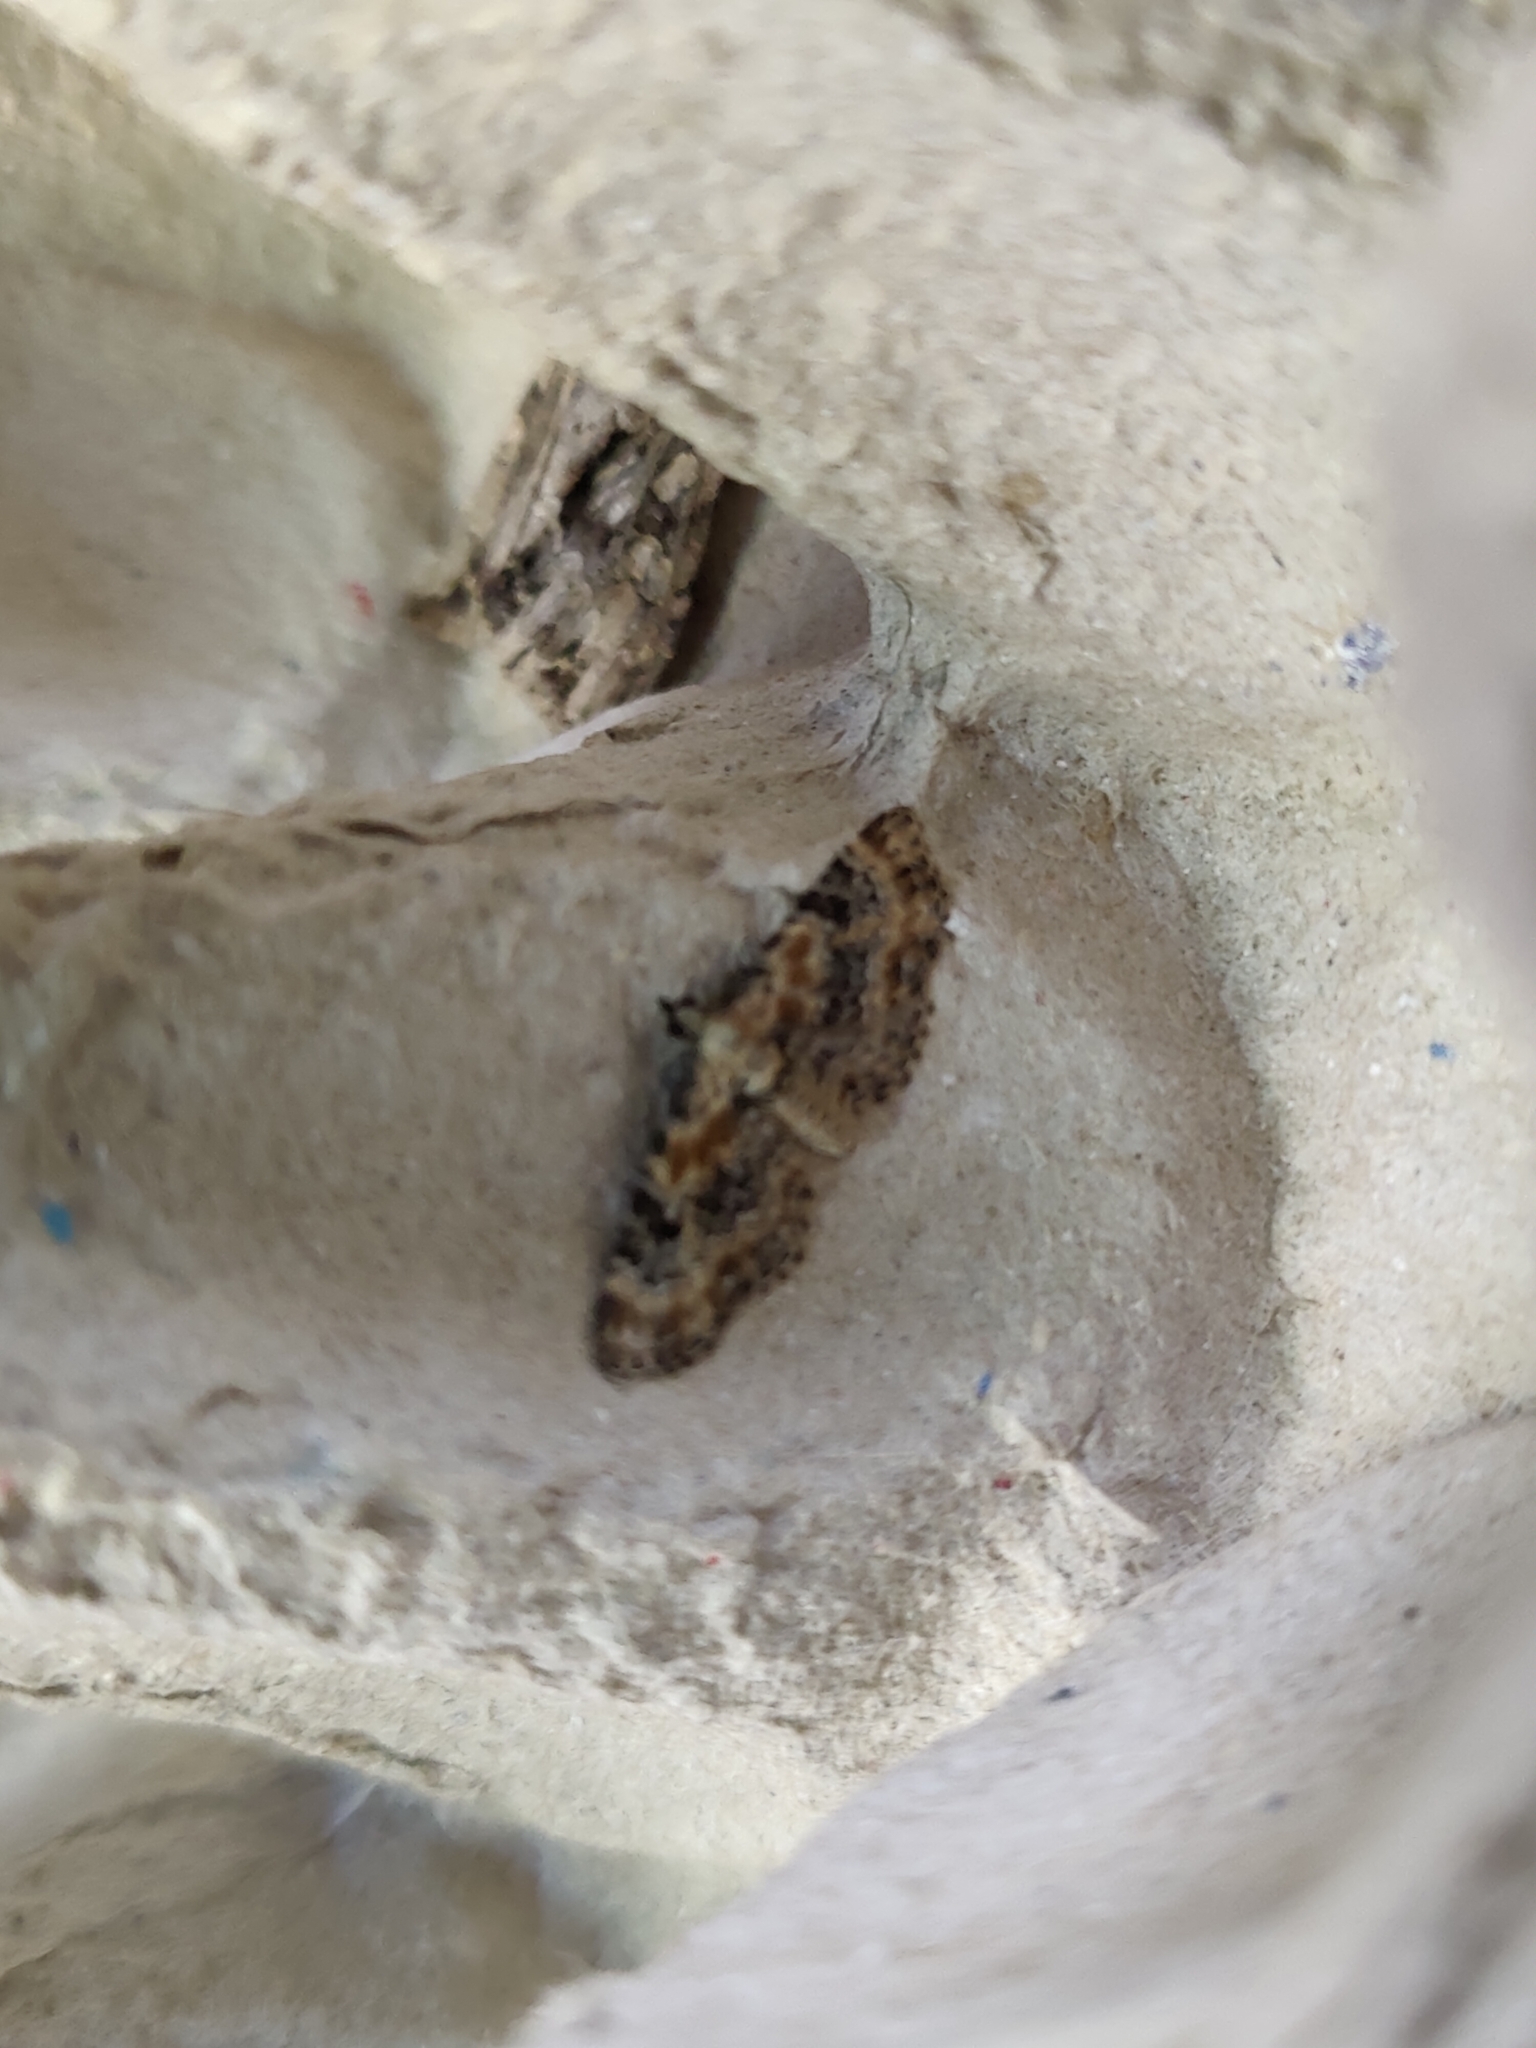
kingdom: Animalia
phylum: Arthropoda
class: Insecta
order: Lepidoptera
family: Geometridae
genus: Eupithecia
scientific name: Eupithecia linariata
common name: Toadflax pug
